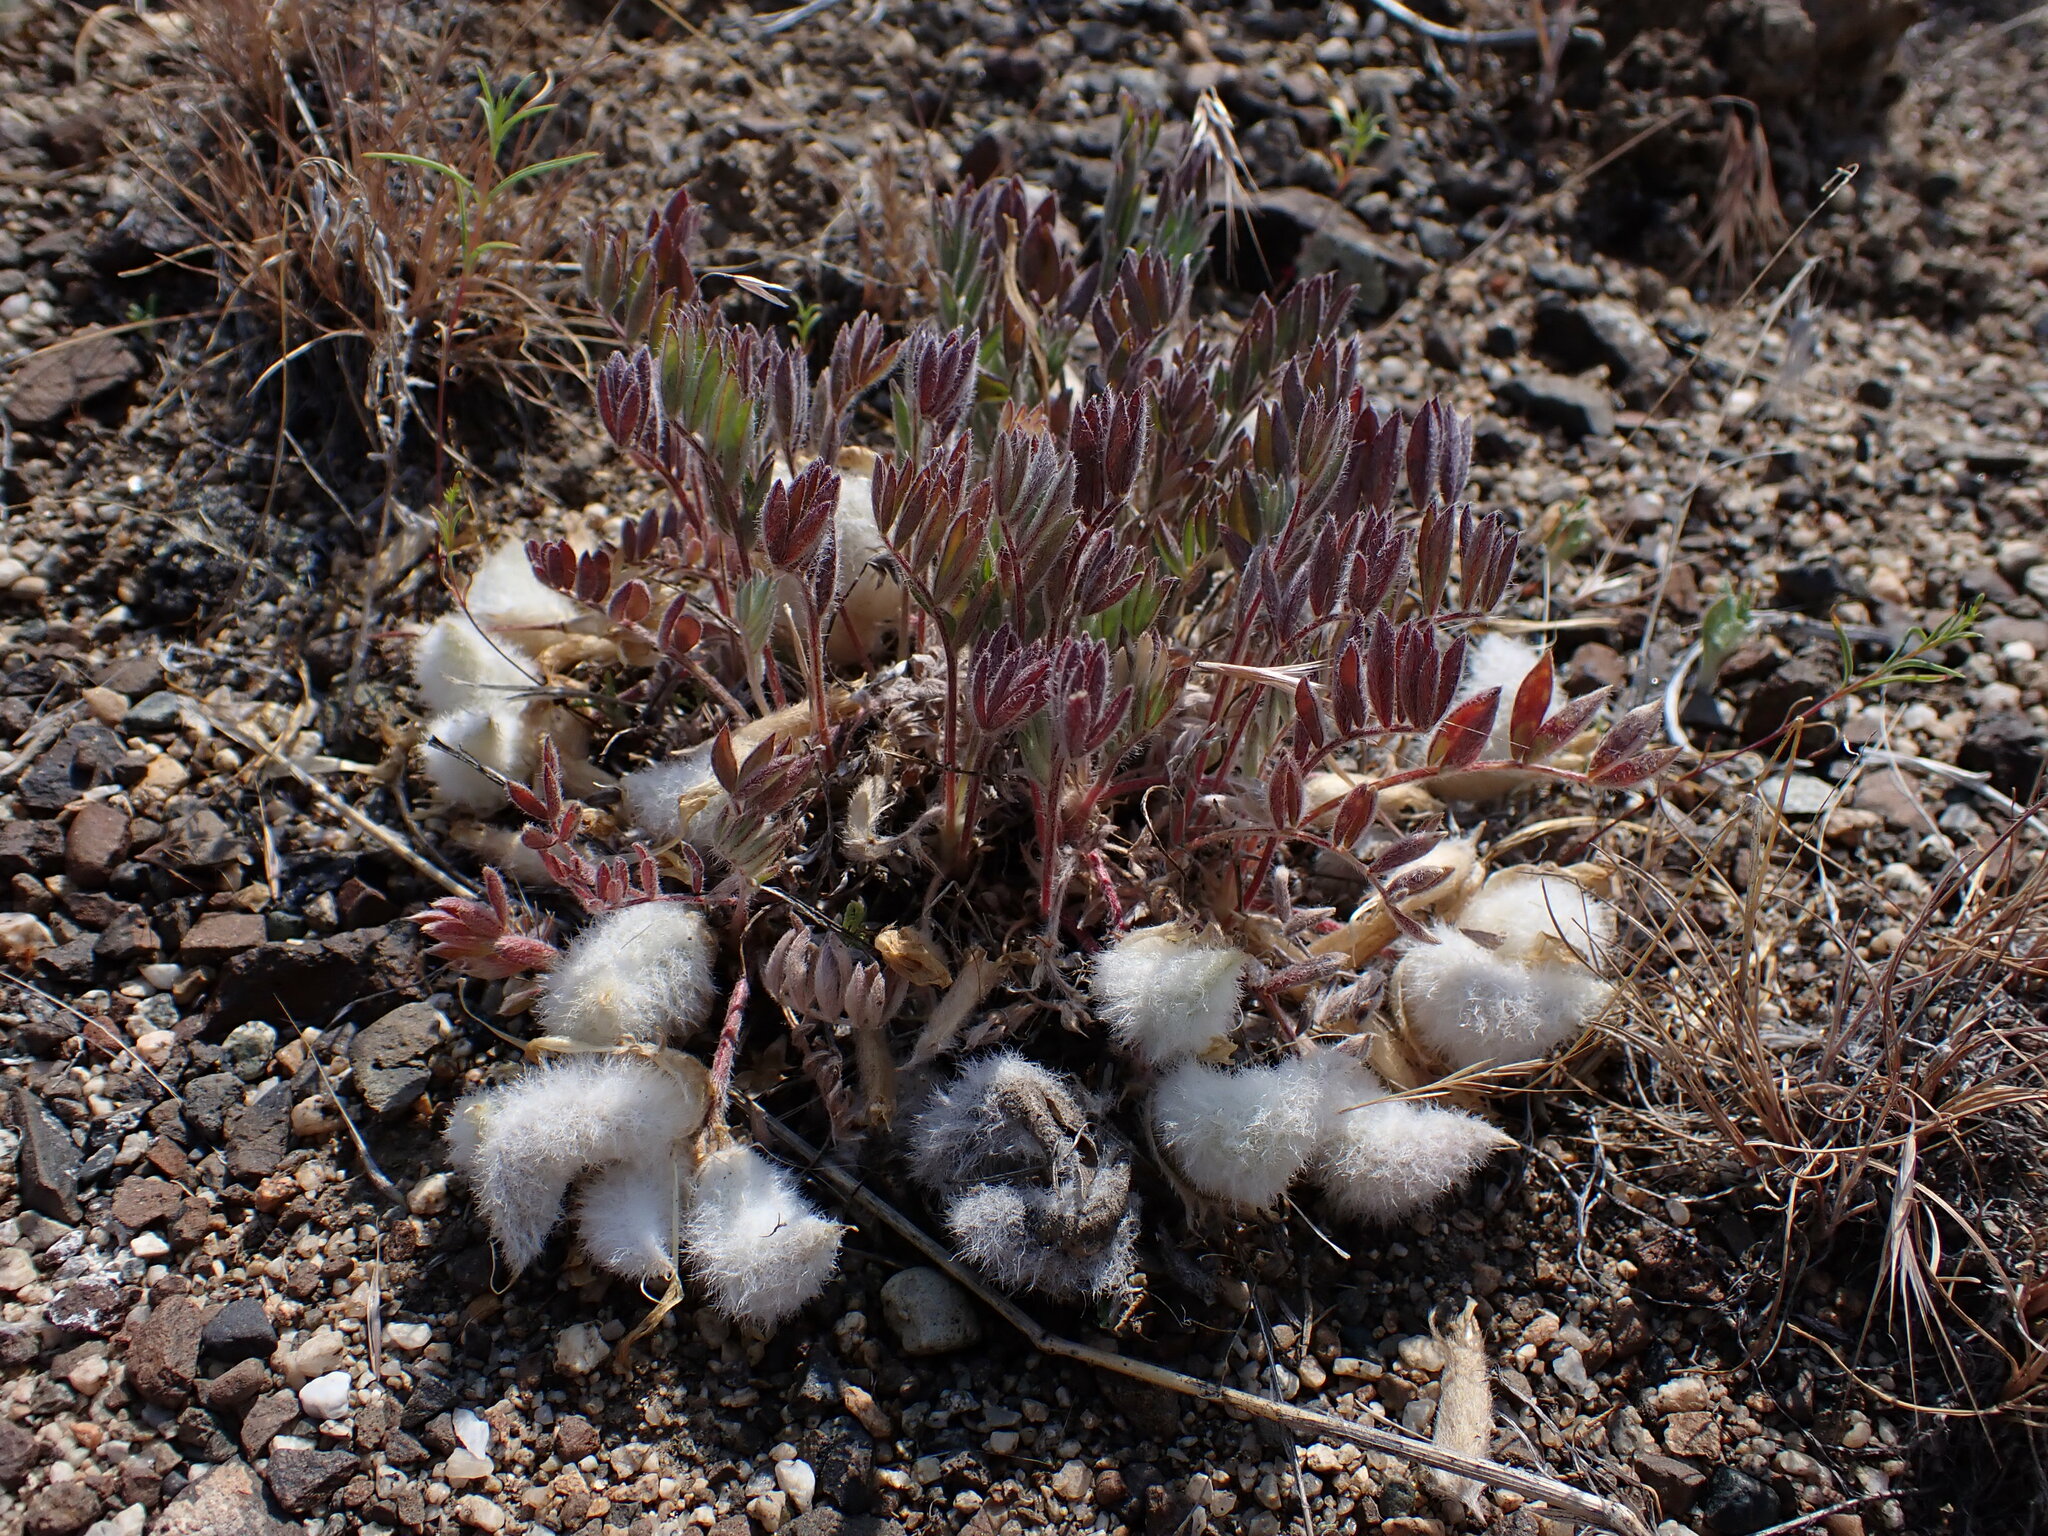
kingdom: Plantae
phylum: Tracheophyta
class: Magnoliopsida
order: Fabales
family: Fabaceae
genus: Astragalus
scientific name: Astragalus purshii
